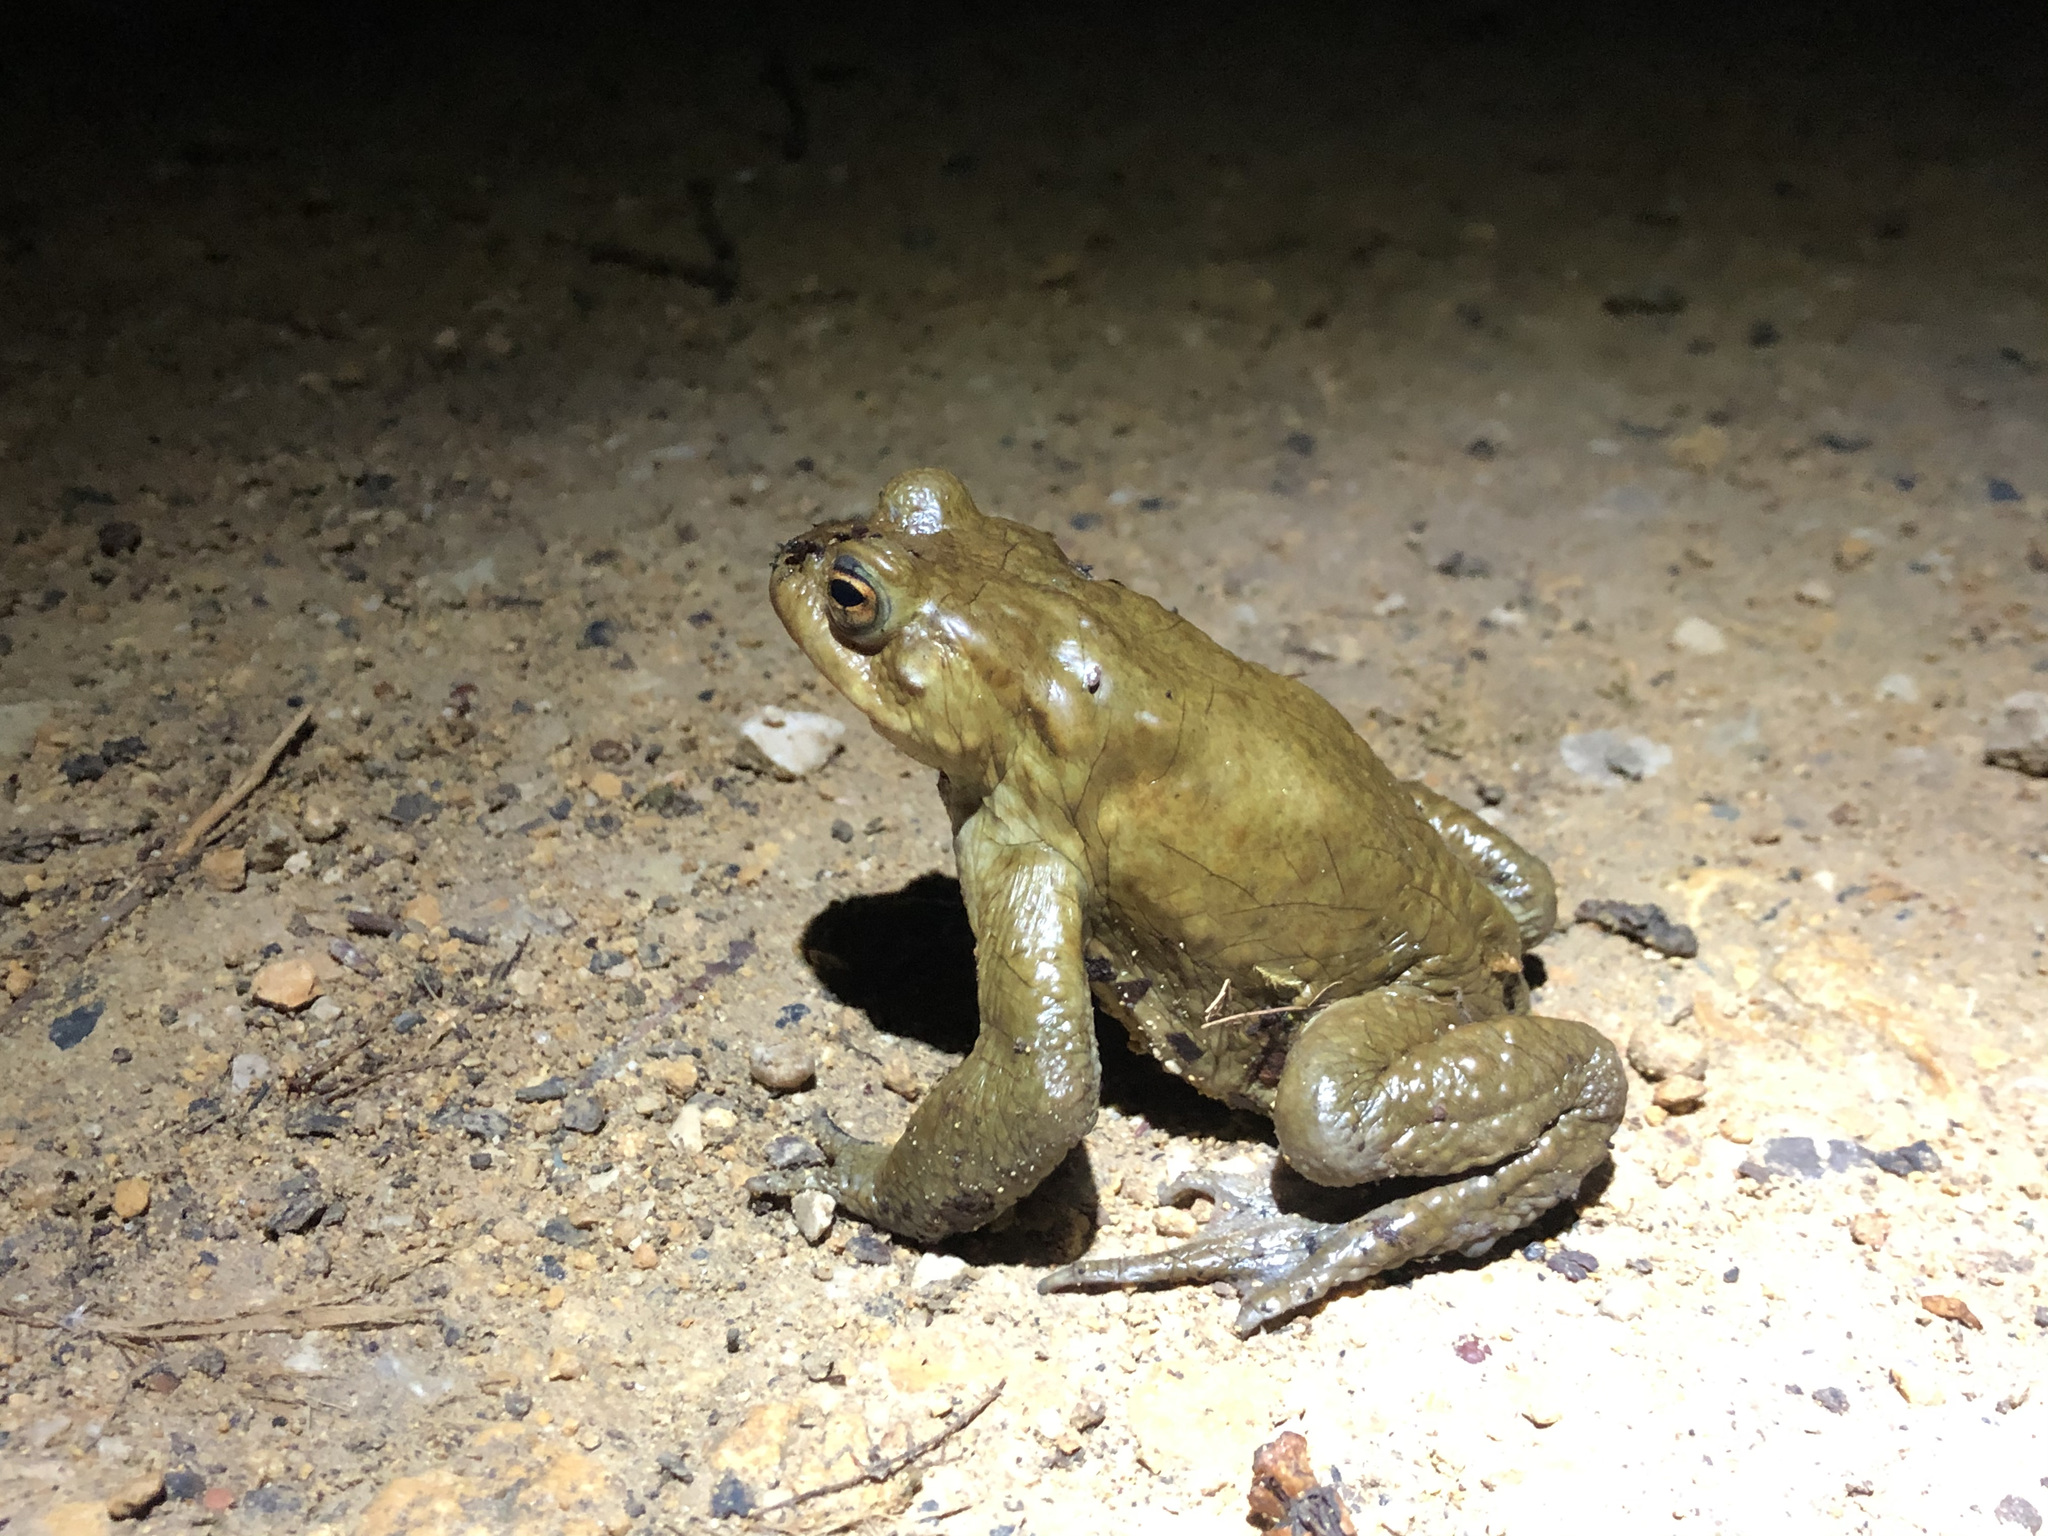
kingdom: Animalia
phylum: Chordata
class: Amphibia
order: Anura
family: Bufonidae
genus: Bufo
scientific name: Bufo bufo
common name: Common toad
